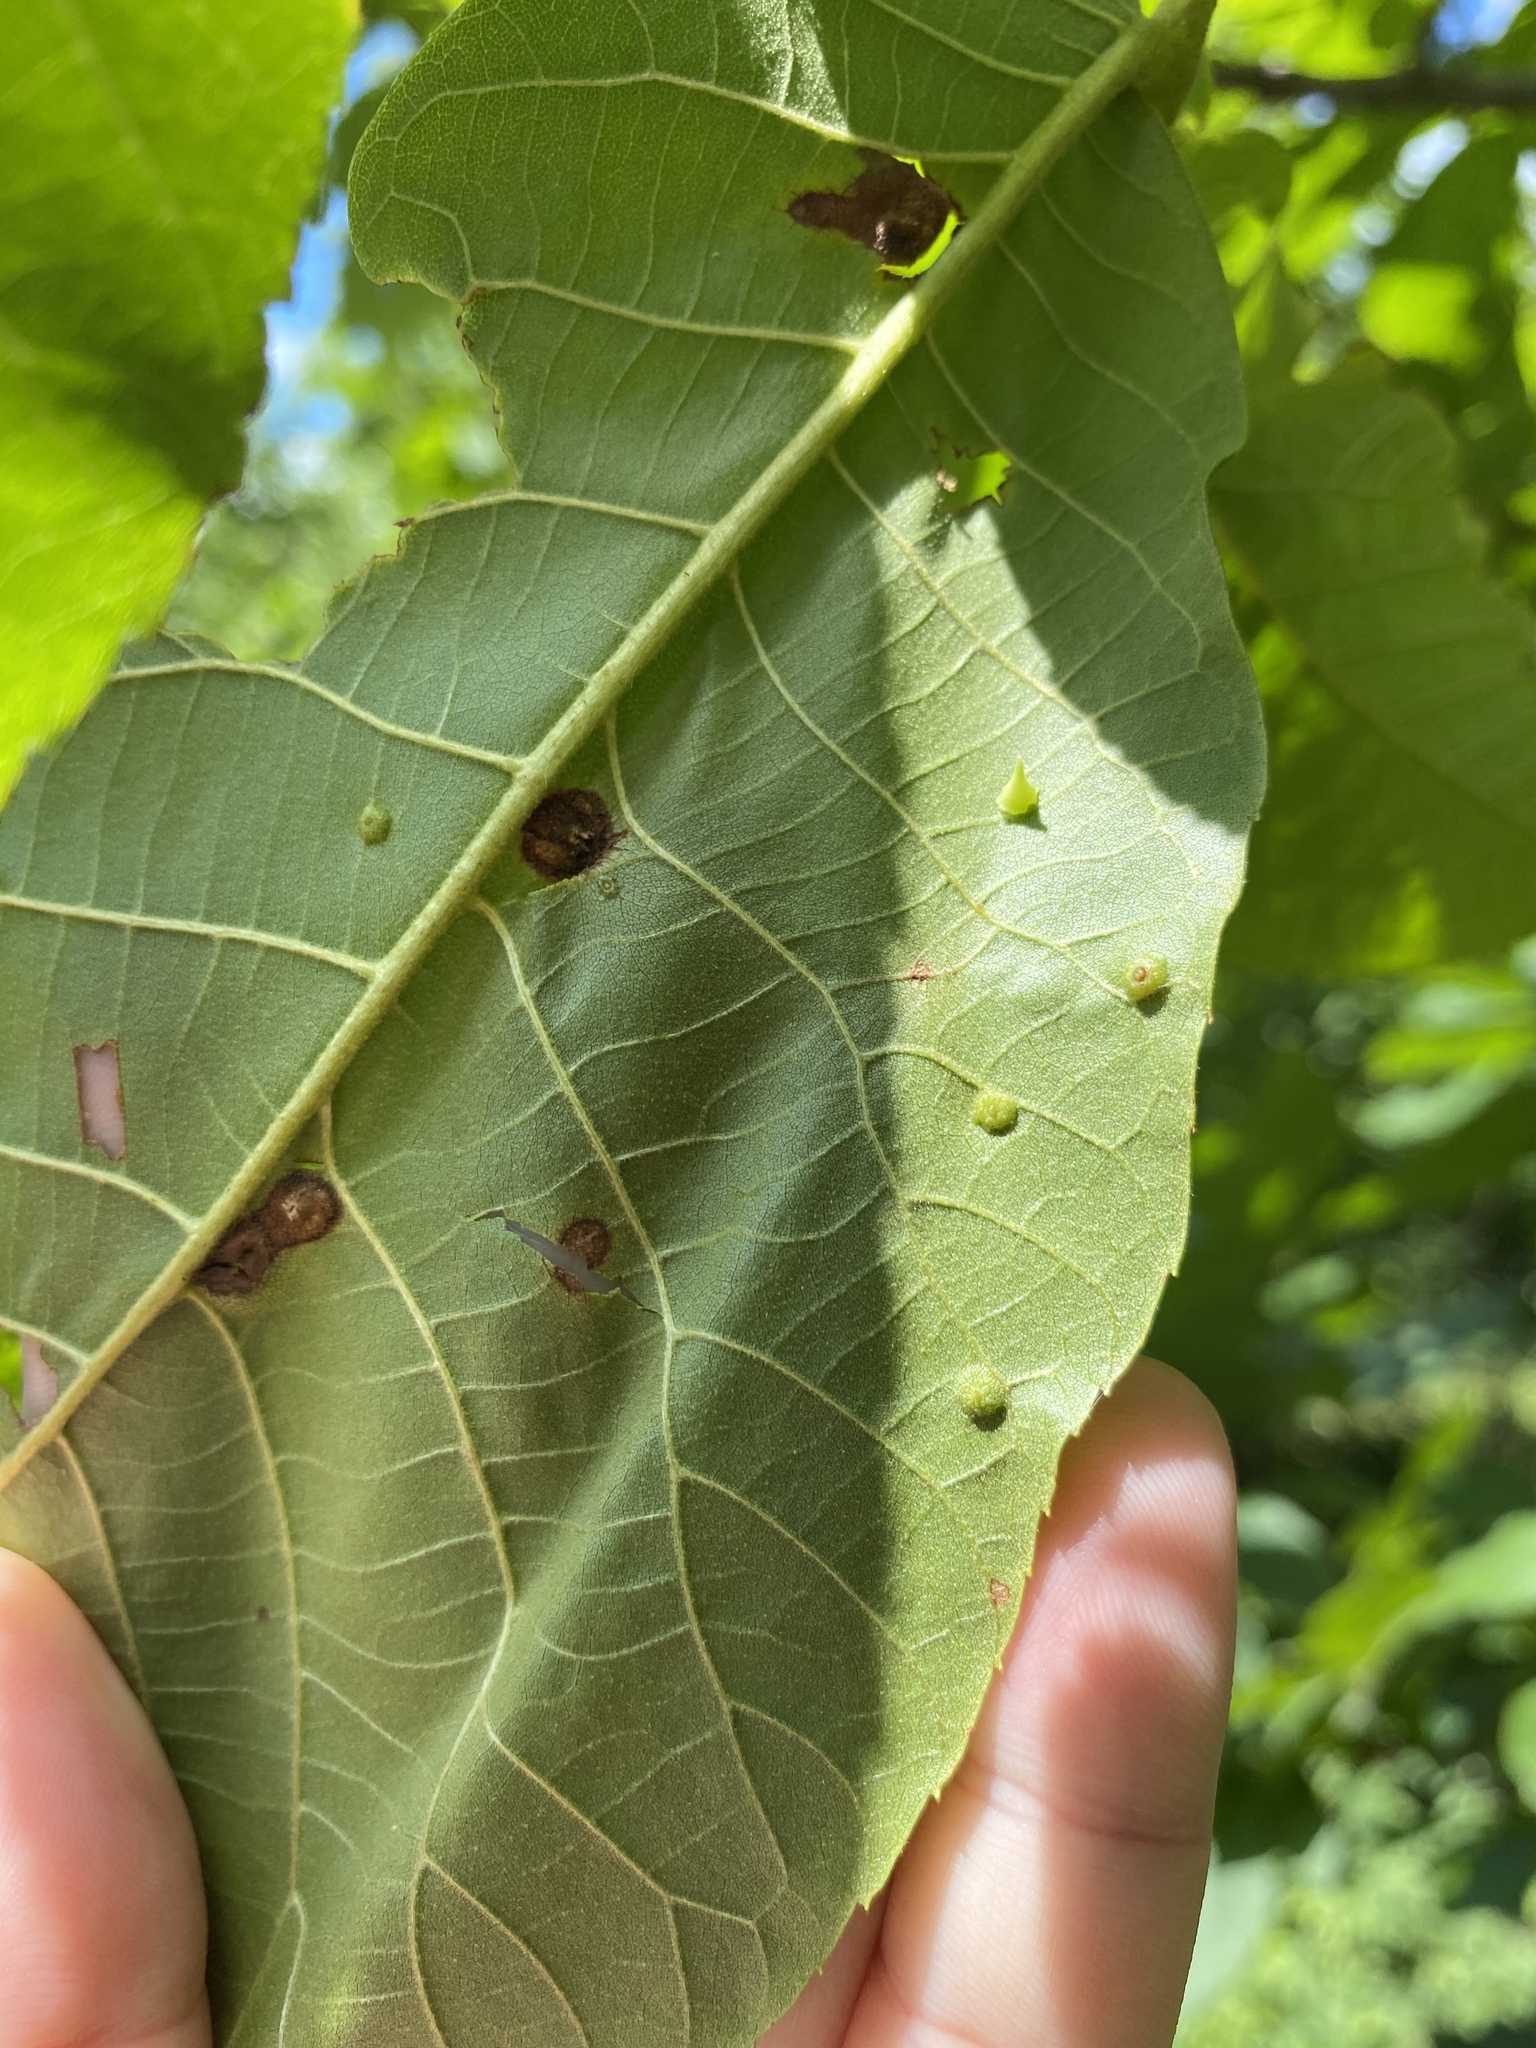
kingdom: Animalia
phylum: Arthropoda
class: Insecta
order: Diptera
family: Cecidomyiidae
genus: Caryomyia
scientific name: Caryomyia sanguinolenta
